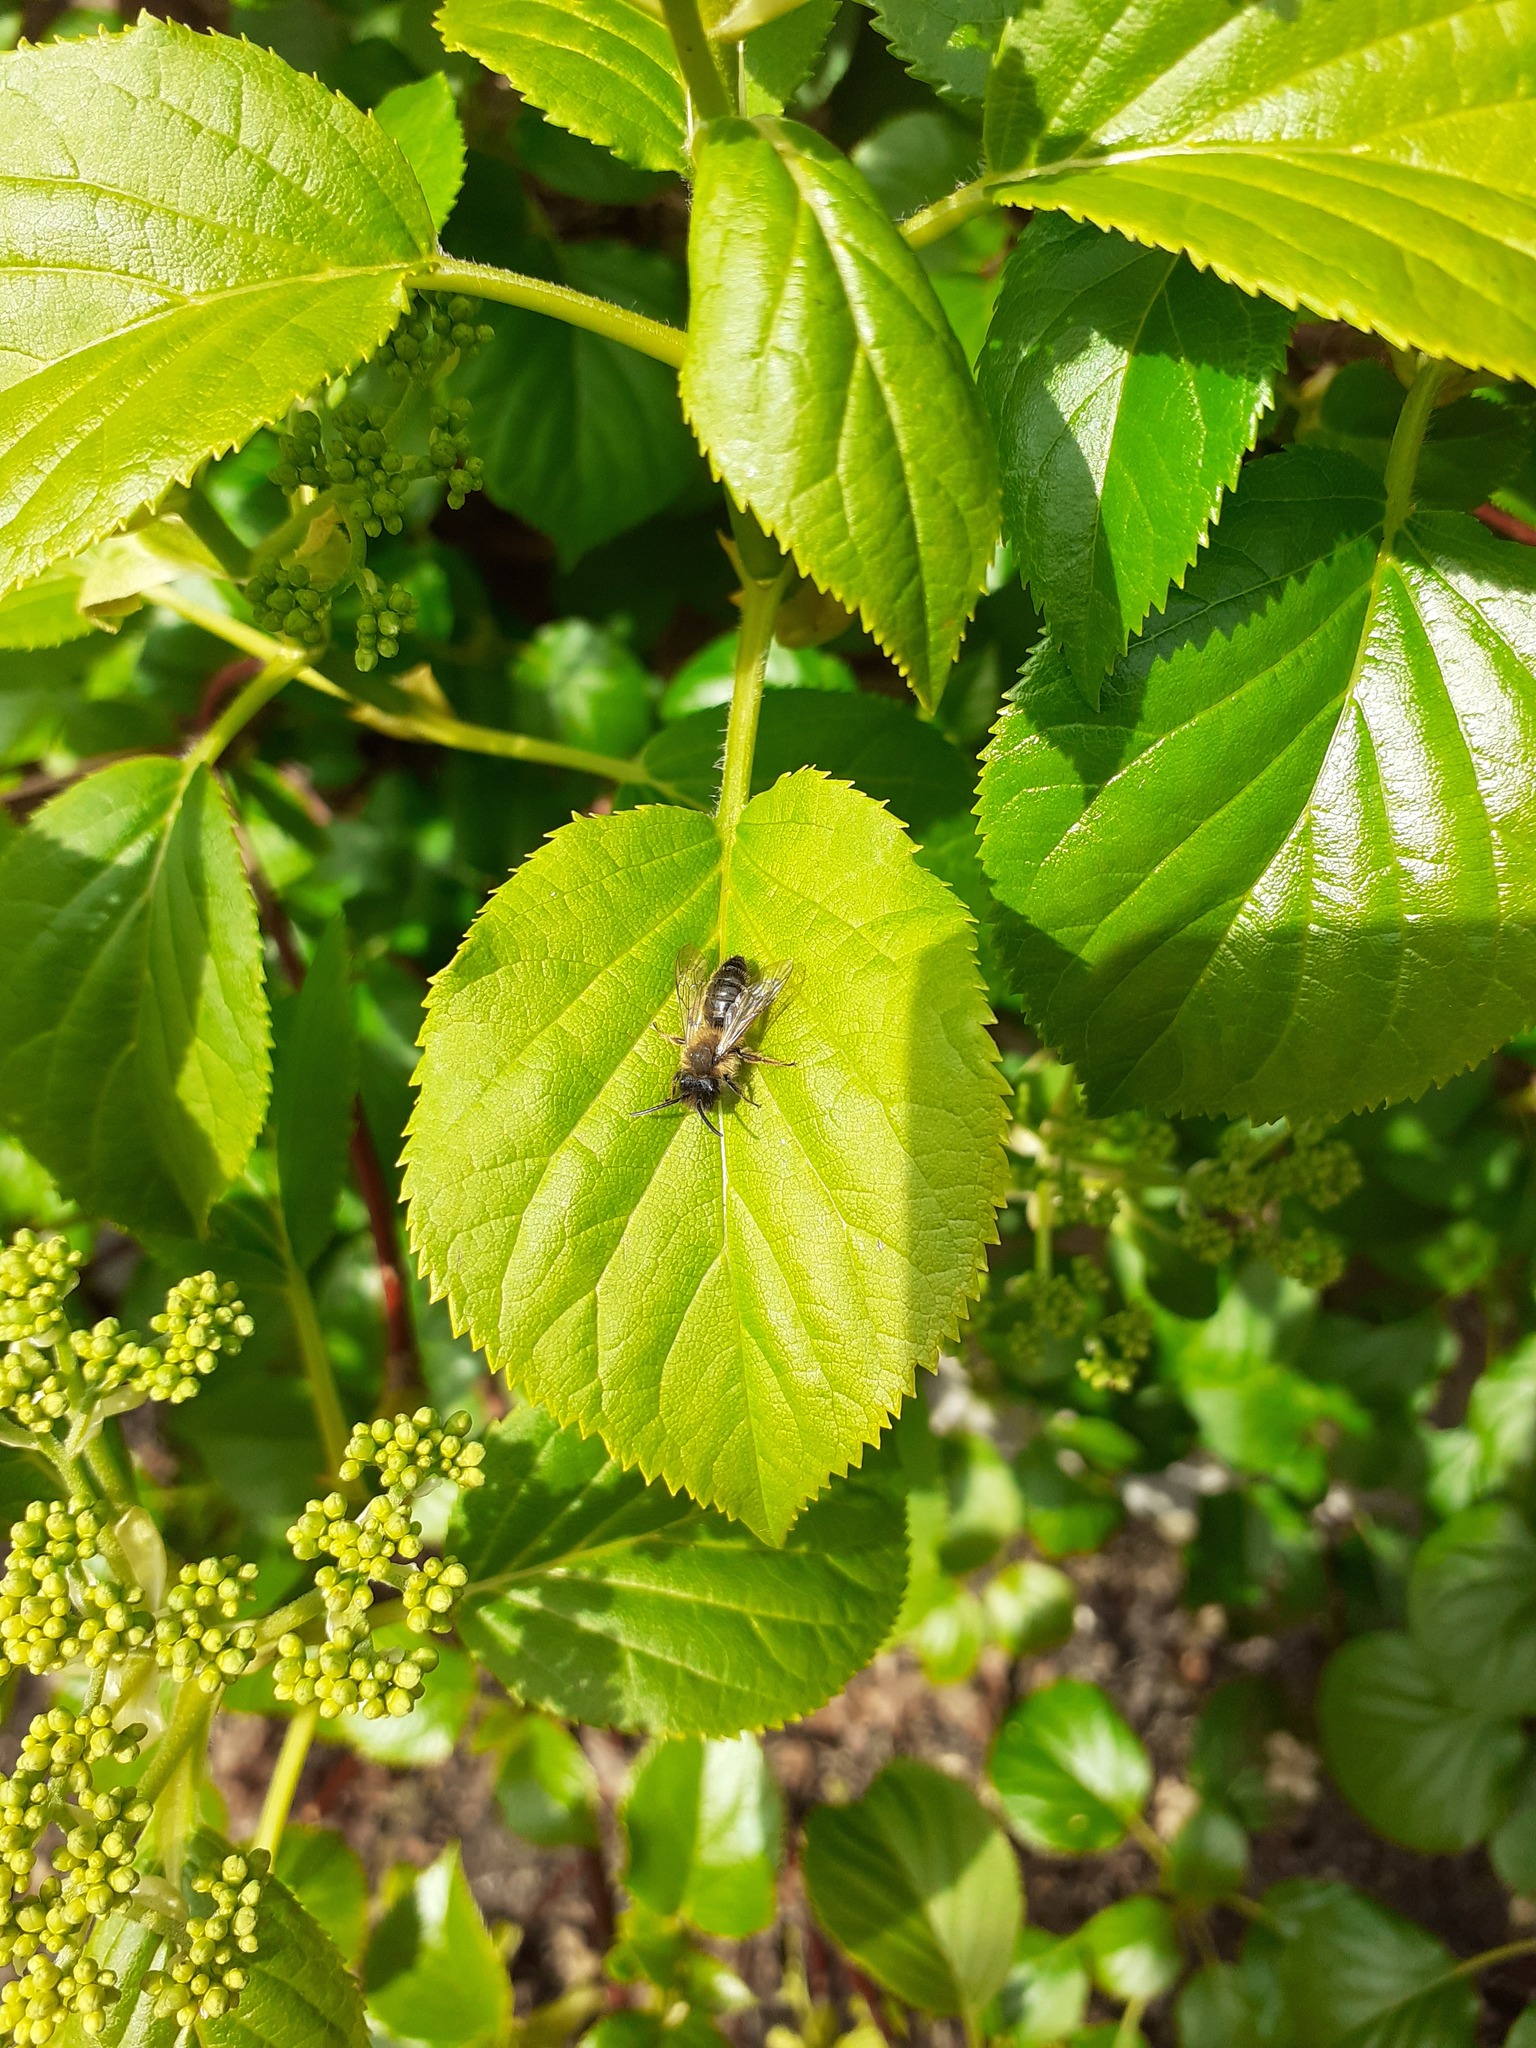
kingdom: Animalia
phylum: Arthropoda
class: Insecta
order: Hymenoptera
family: Andrenidae
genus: Andrena
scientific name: Andrena haemorrhoa
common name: Early mining bee
